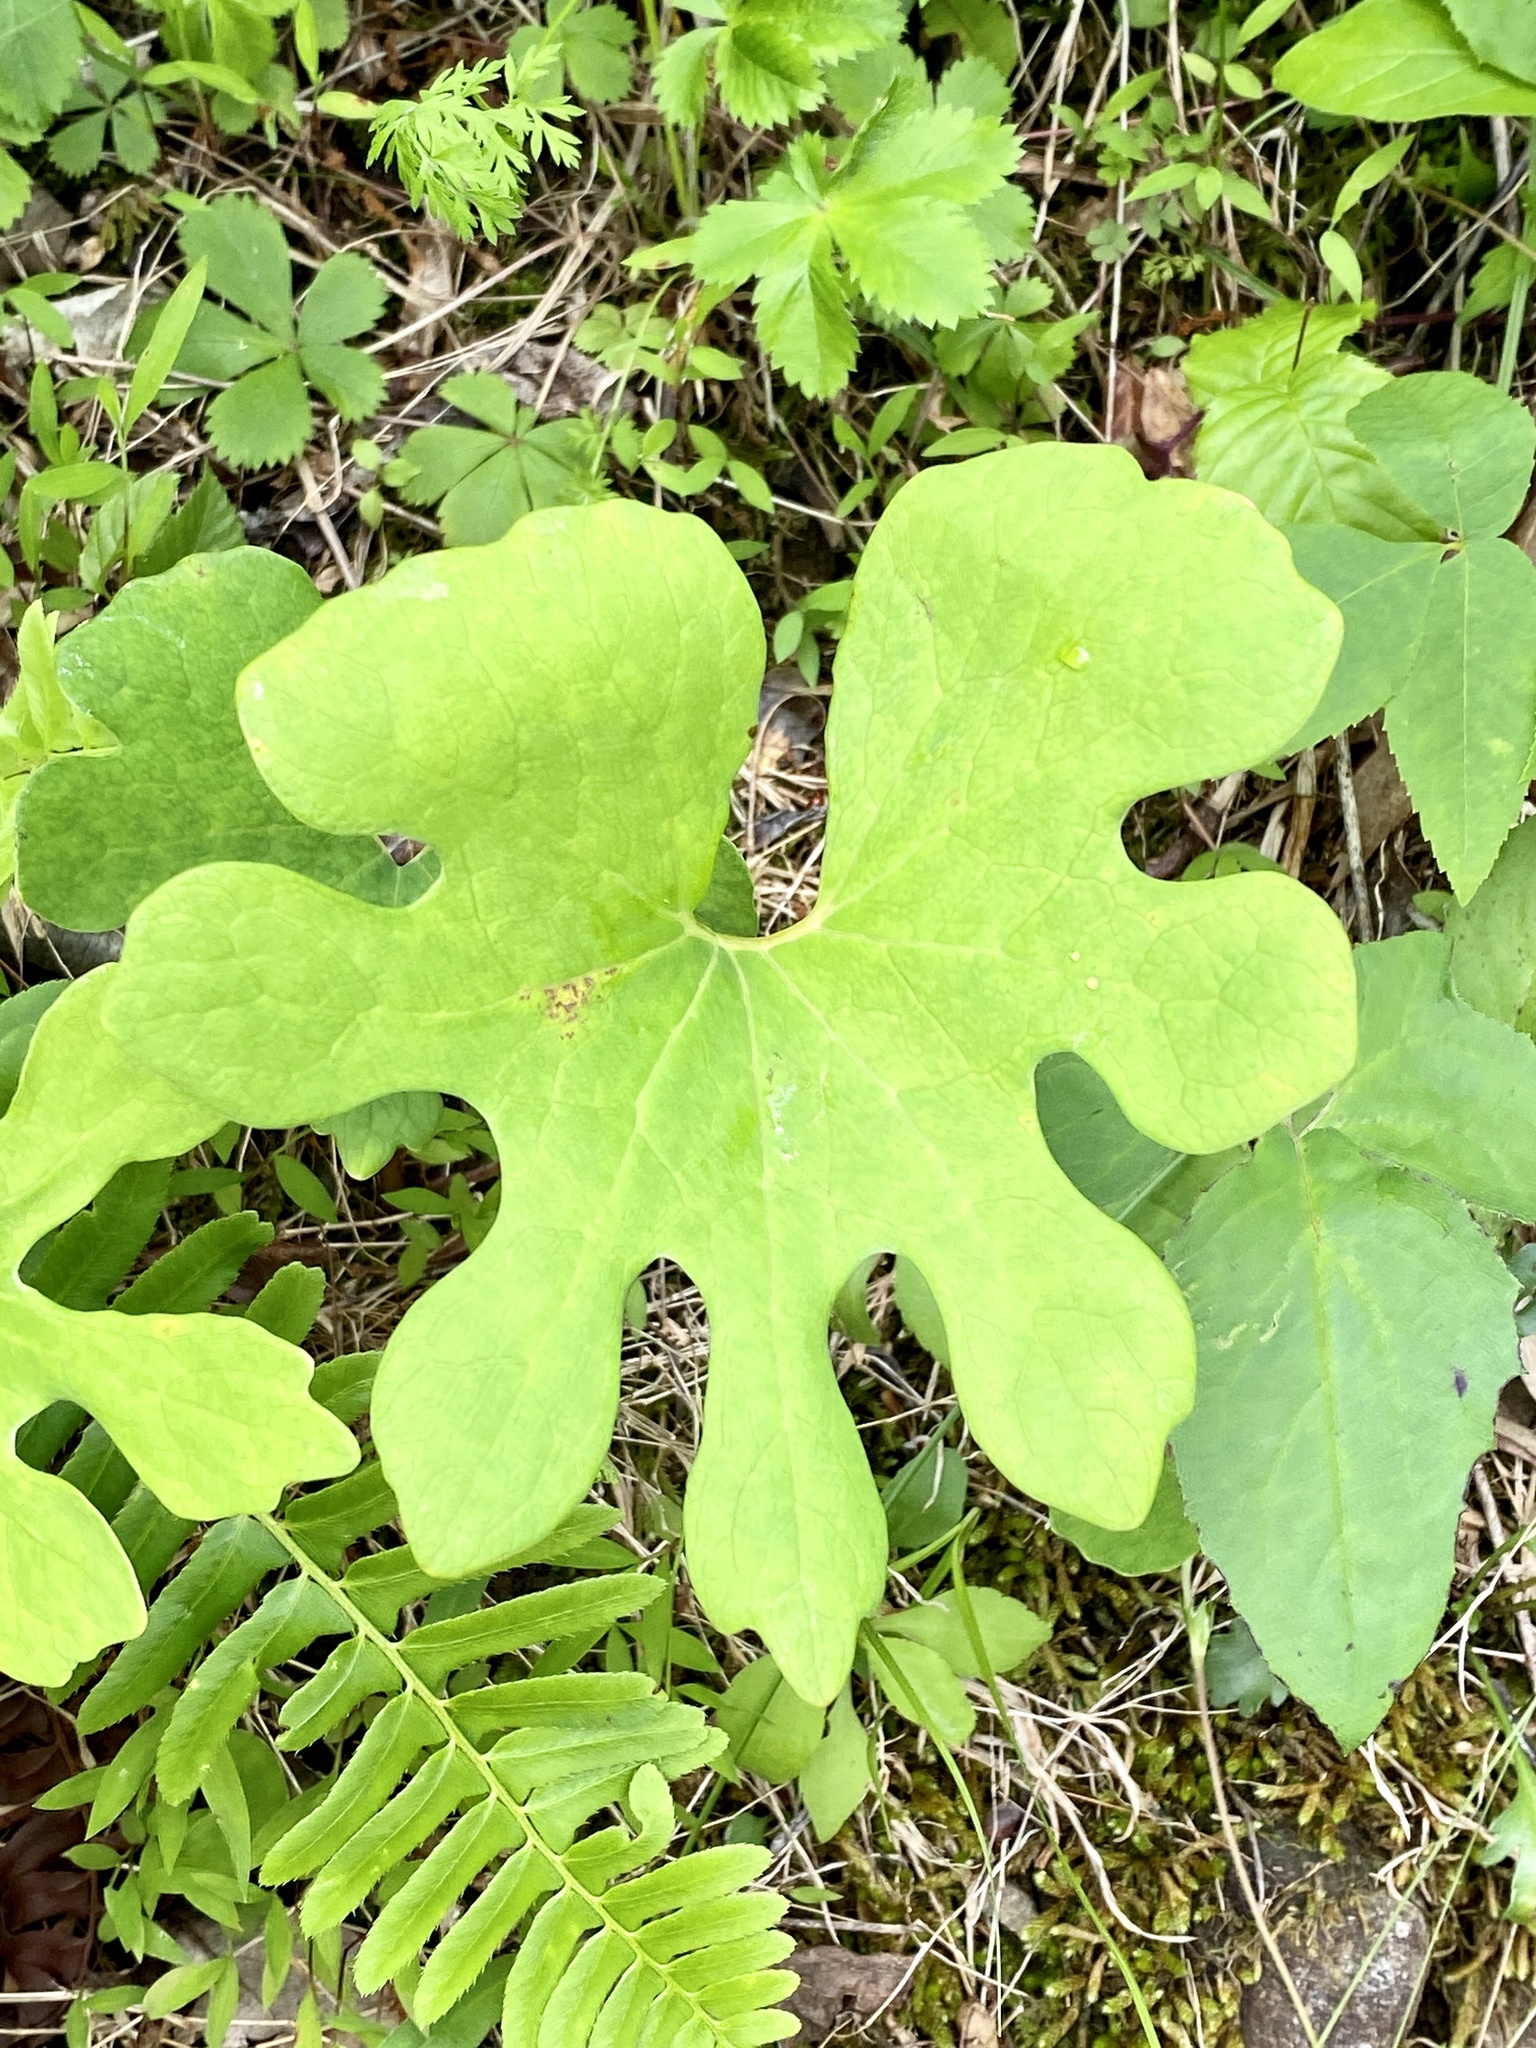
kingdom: Plantae
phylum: Tracheophyta
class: Magnoliopsida
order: Ranunculales
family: Papaveraceae
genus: Sanguinaria
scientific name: Sanguinaria canadensis
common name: Bloodroot
